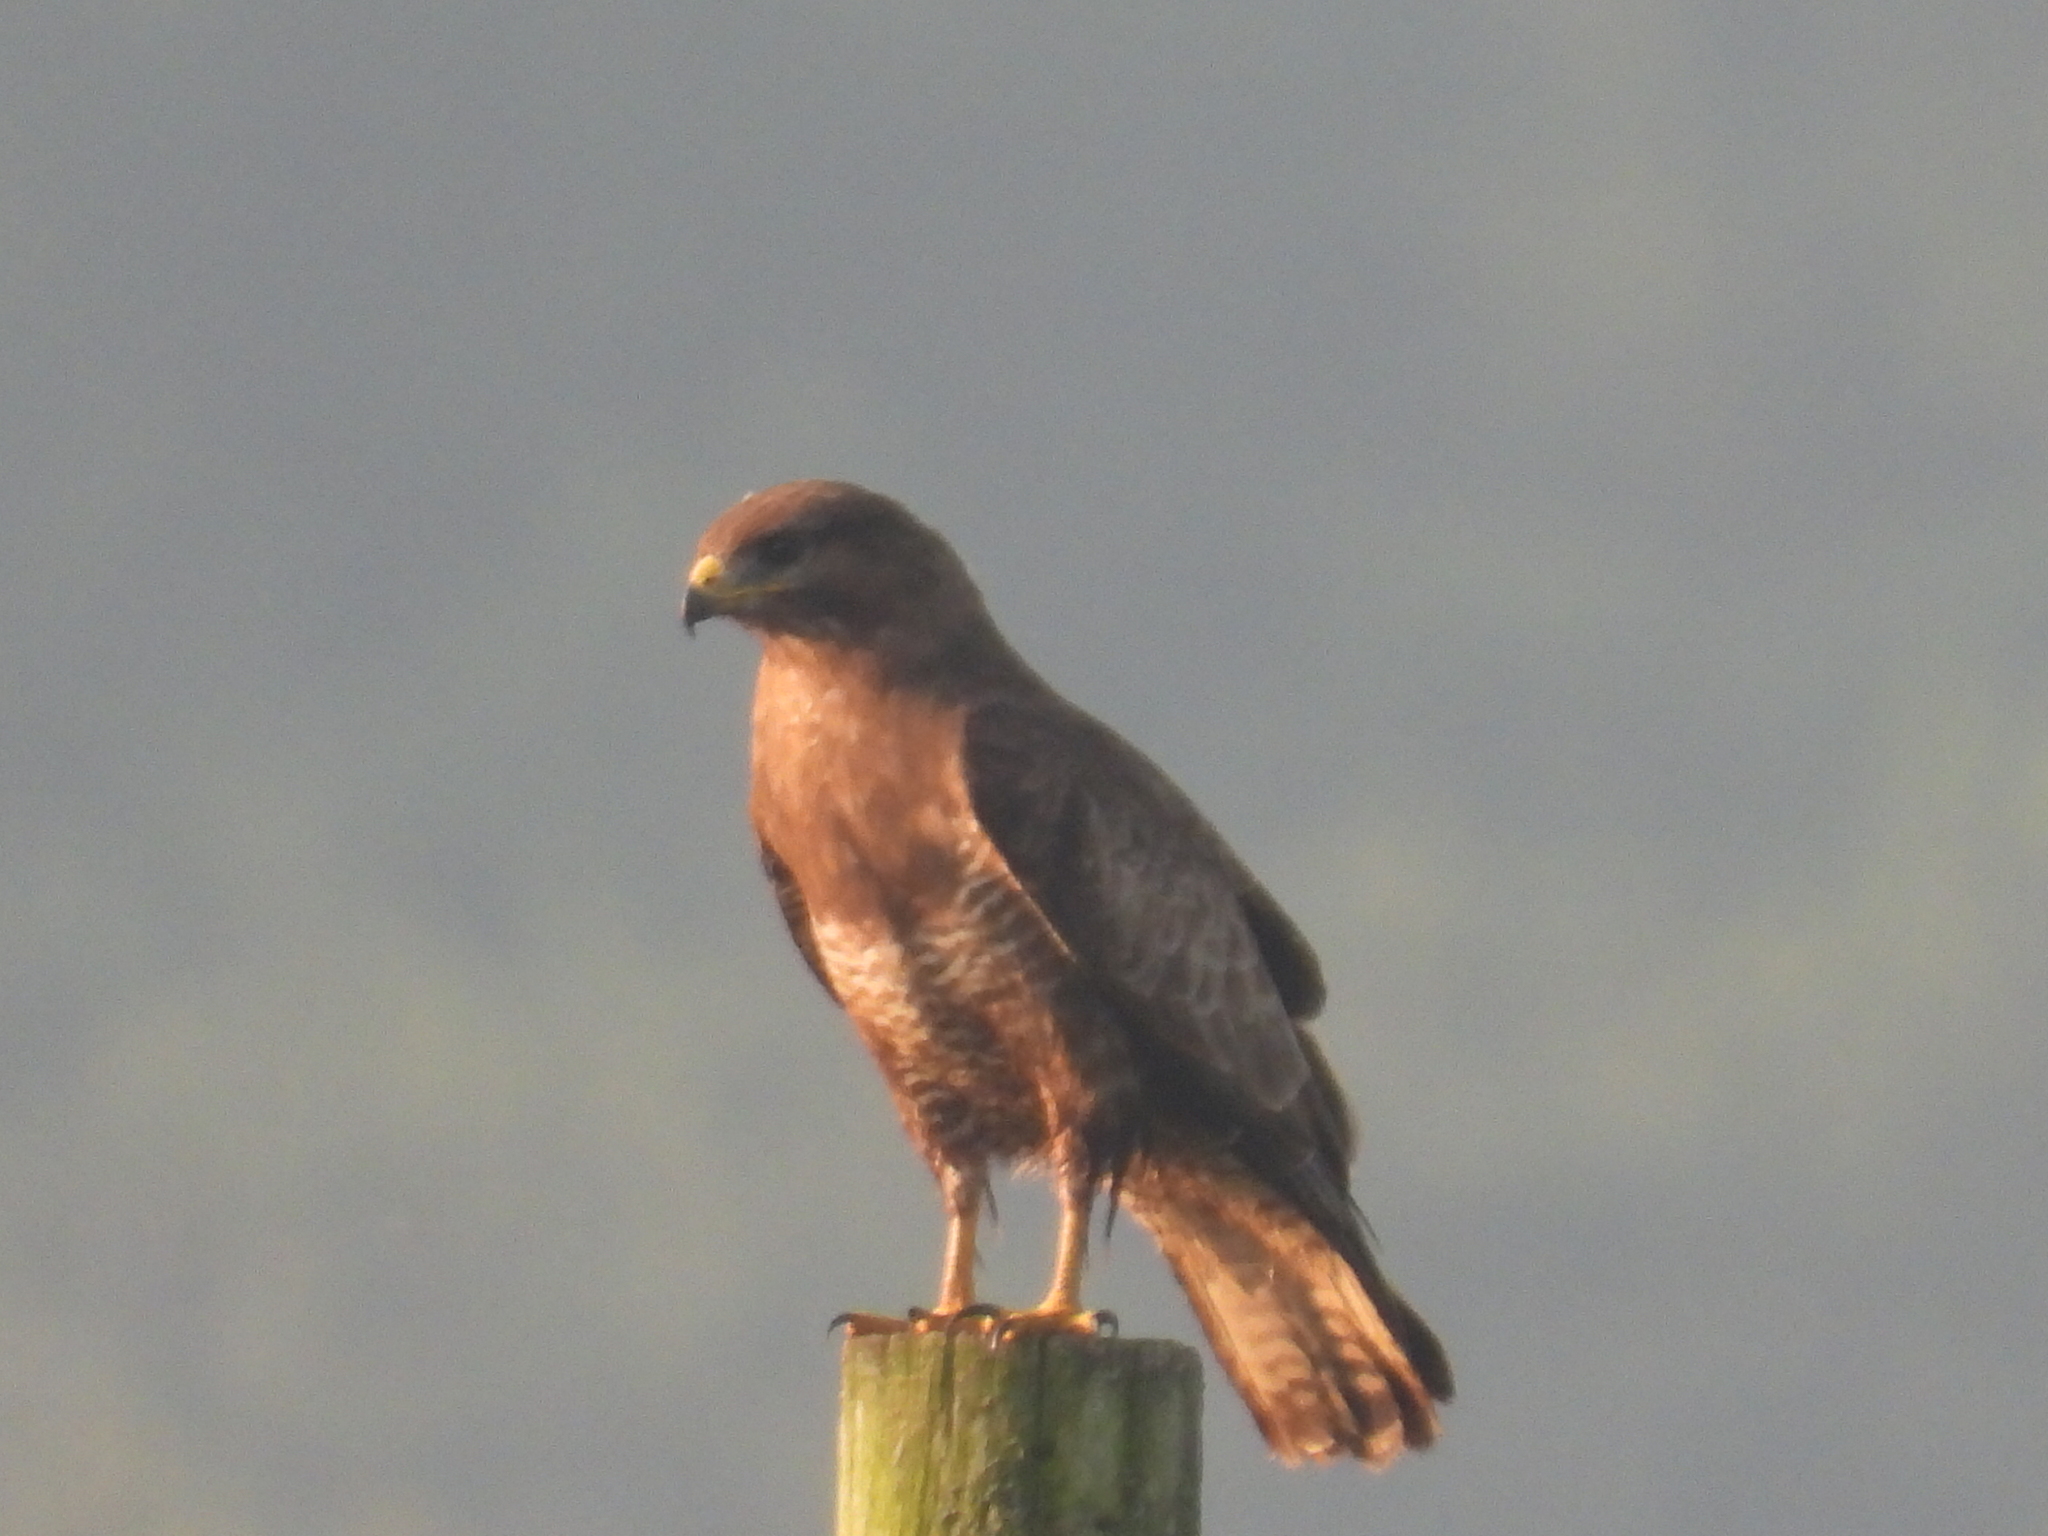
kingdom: Animalia
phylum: Chordata
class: Aves
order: Accipitriformes
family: Accipitridae
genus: Buteo
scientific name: Buteo buteo
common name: Common buzzard
